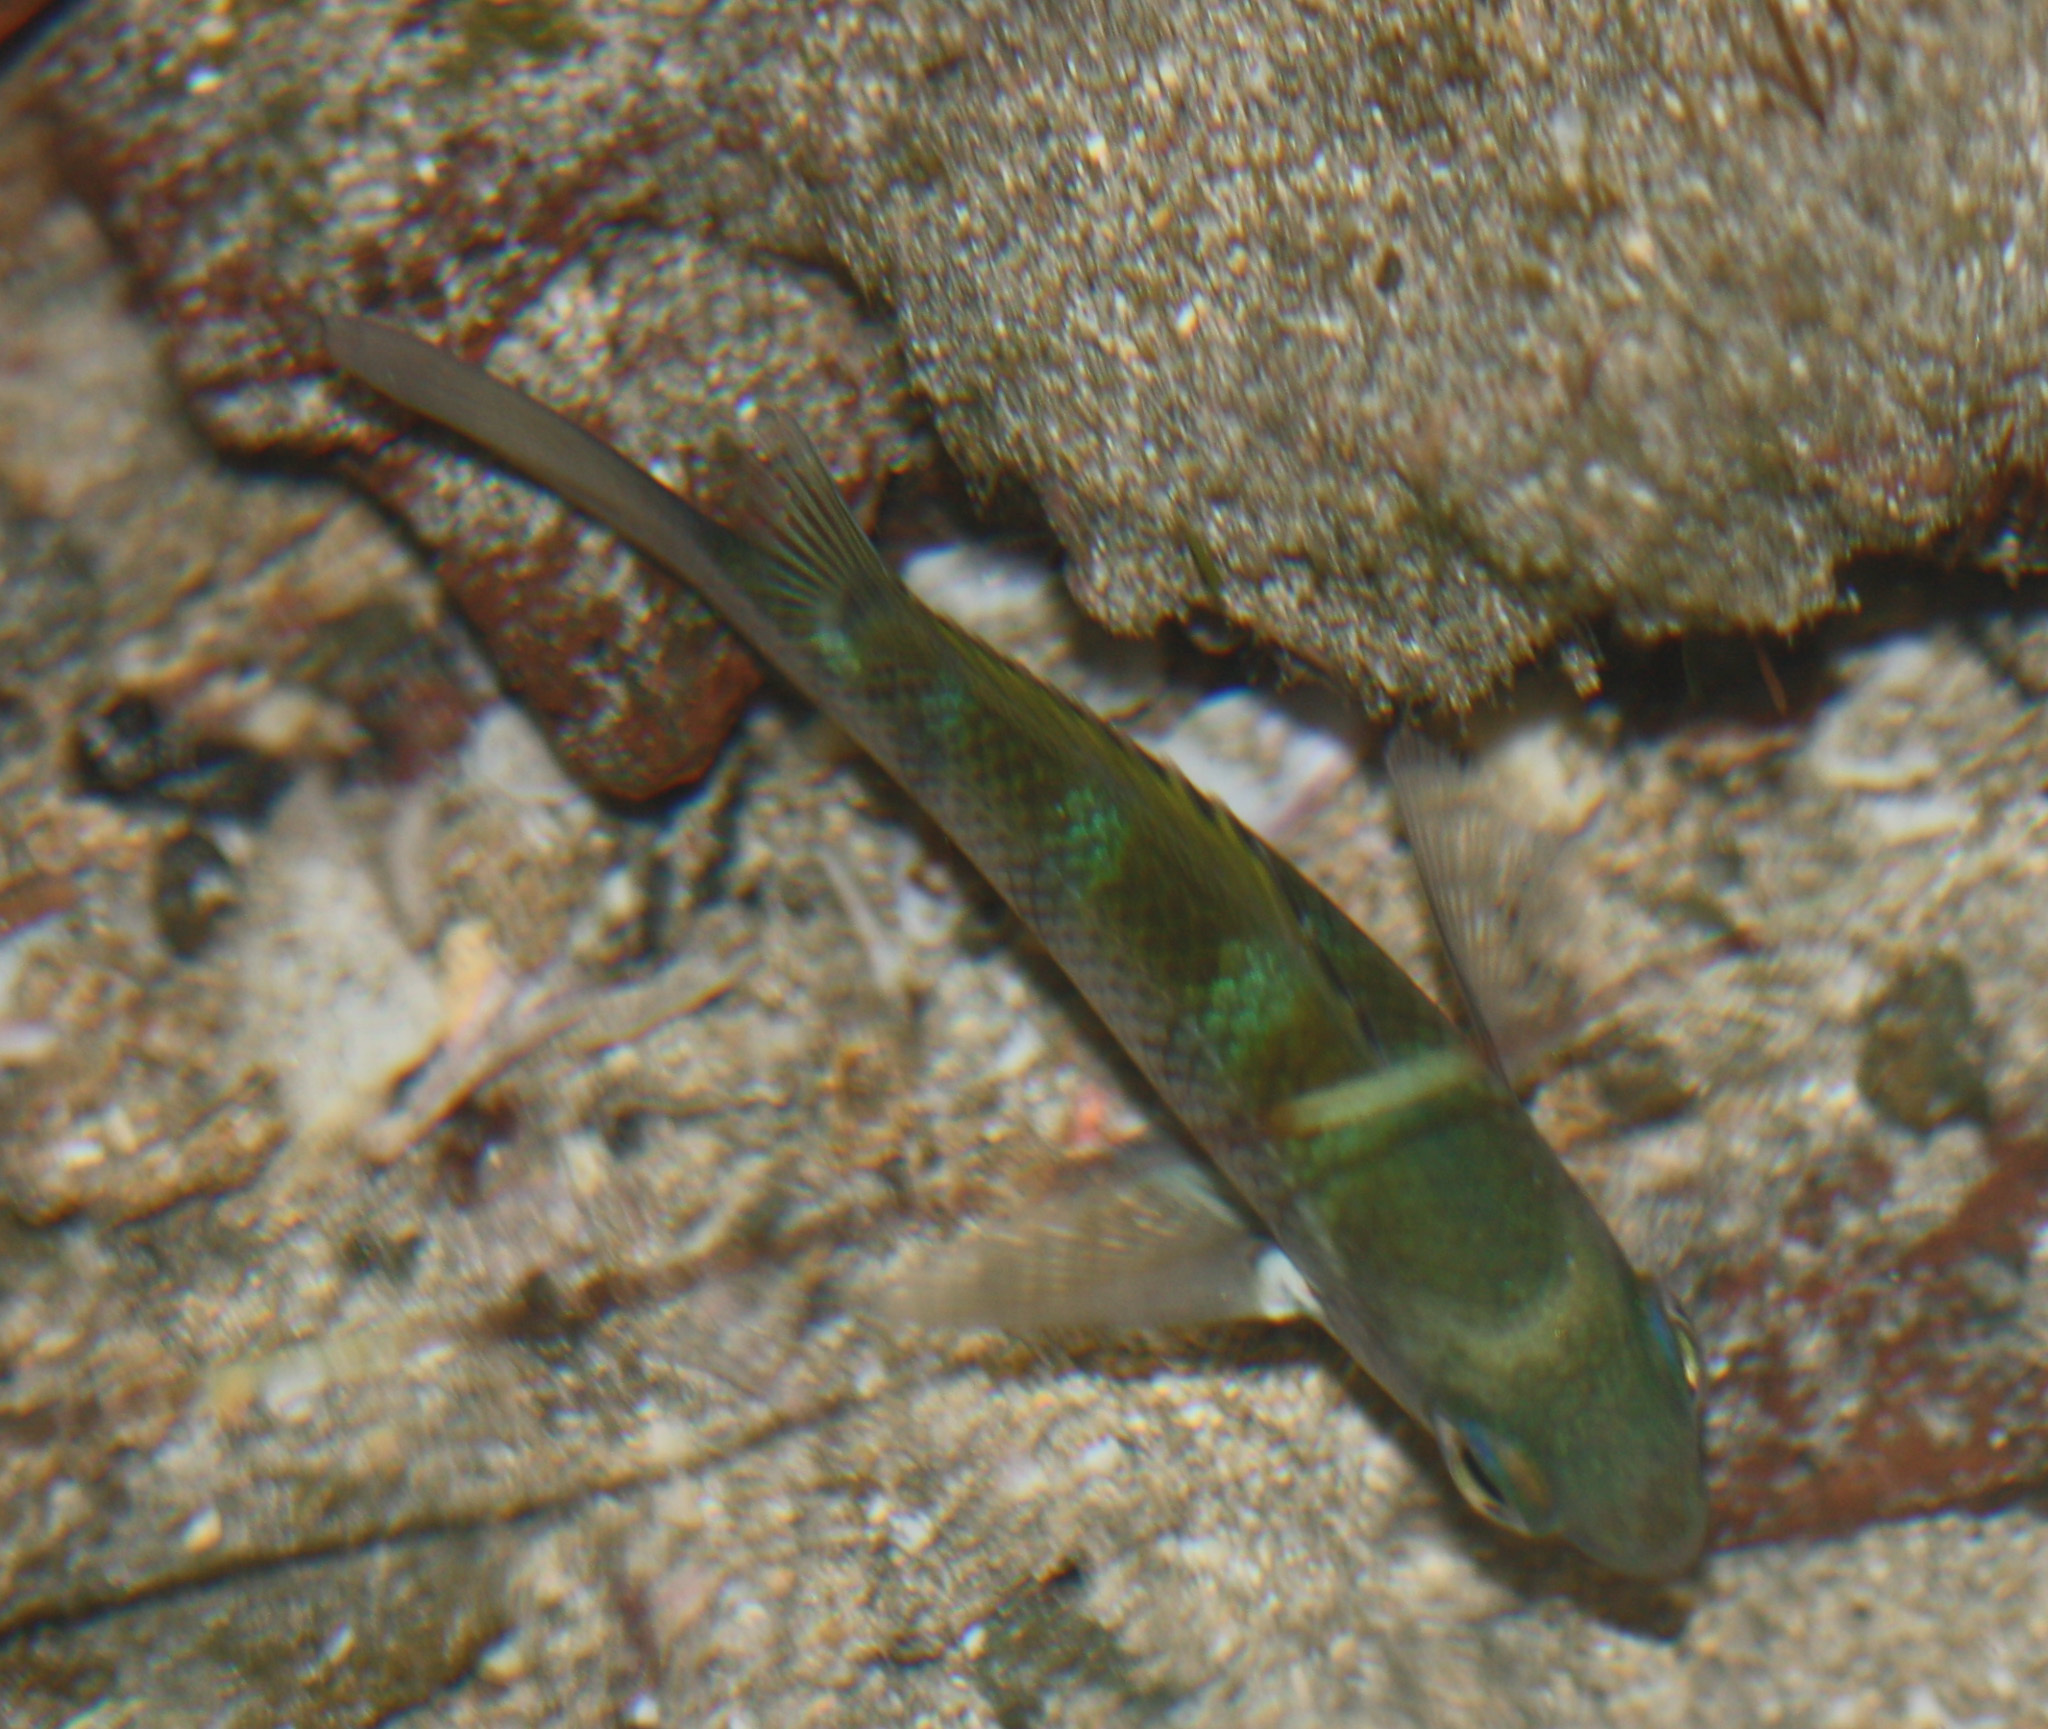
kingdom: Animalia
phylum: Chordata
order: Perciformes
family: Pomacentridae
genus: Abudefduf
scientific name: Abudefduf troschelii
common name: Panamic sergeant major
